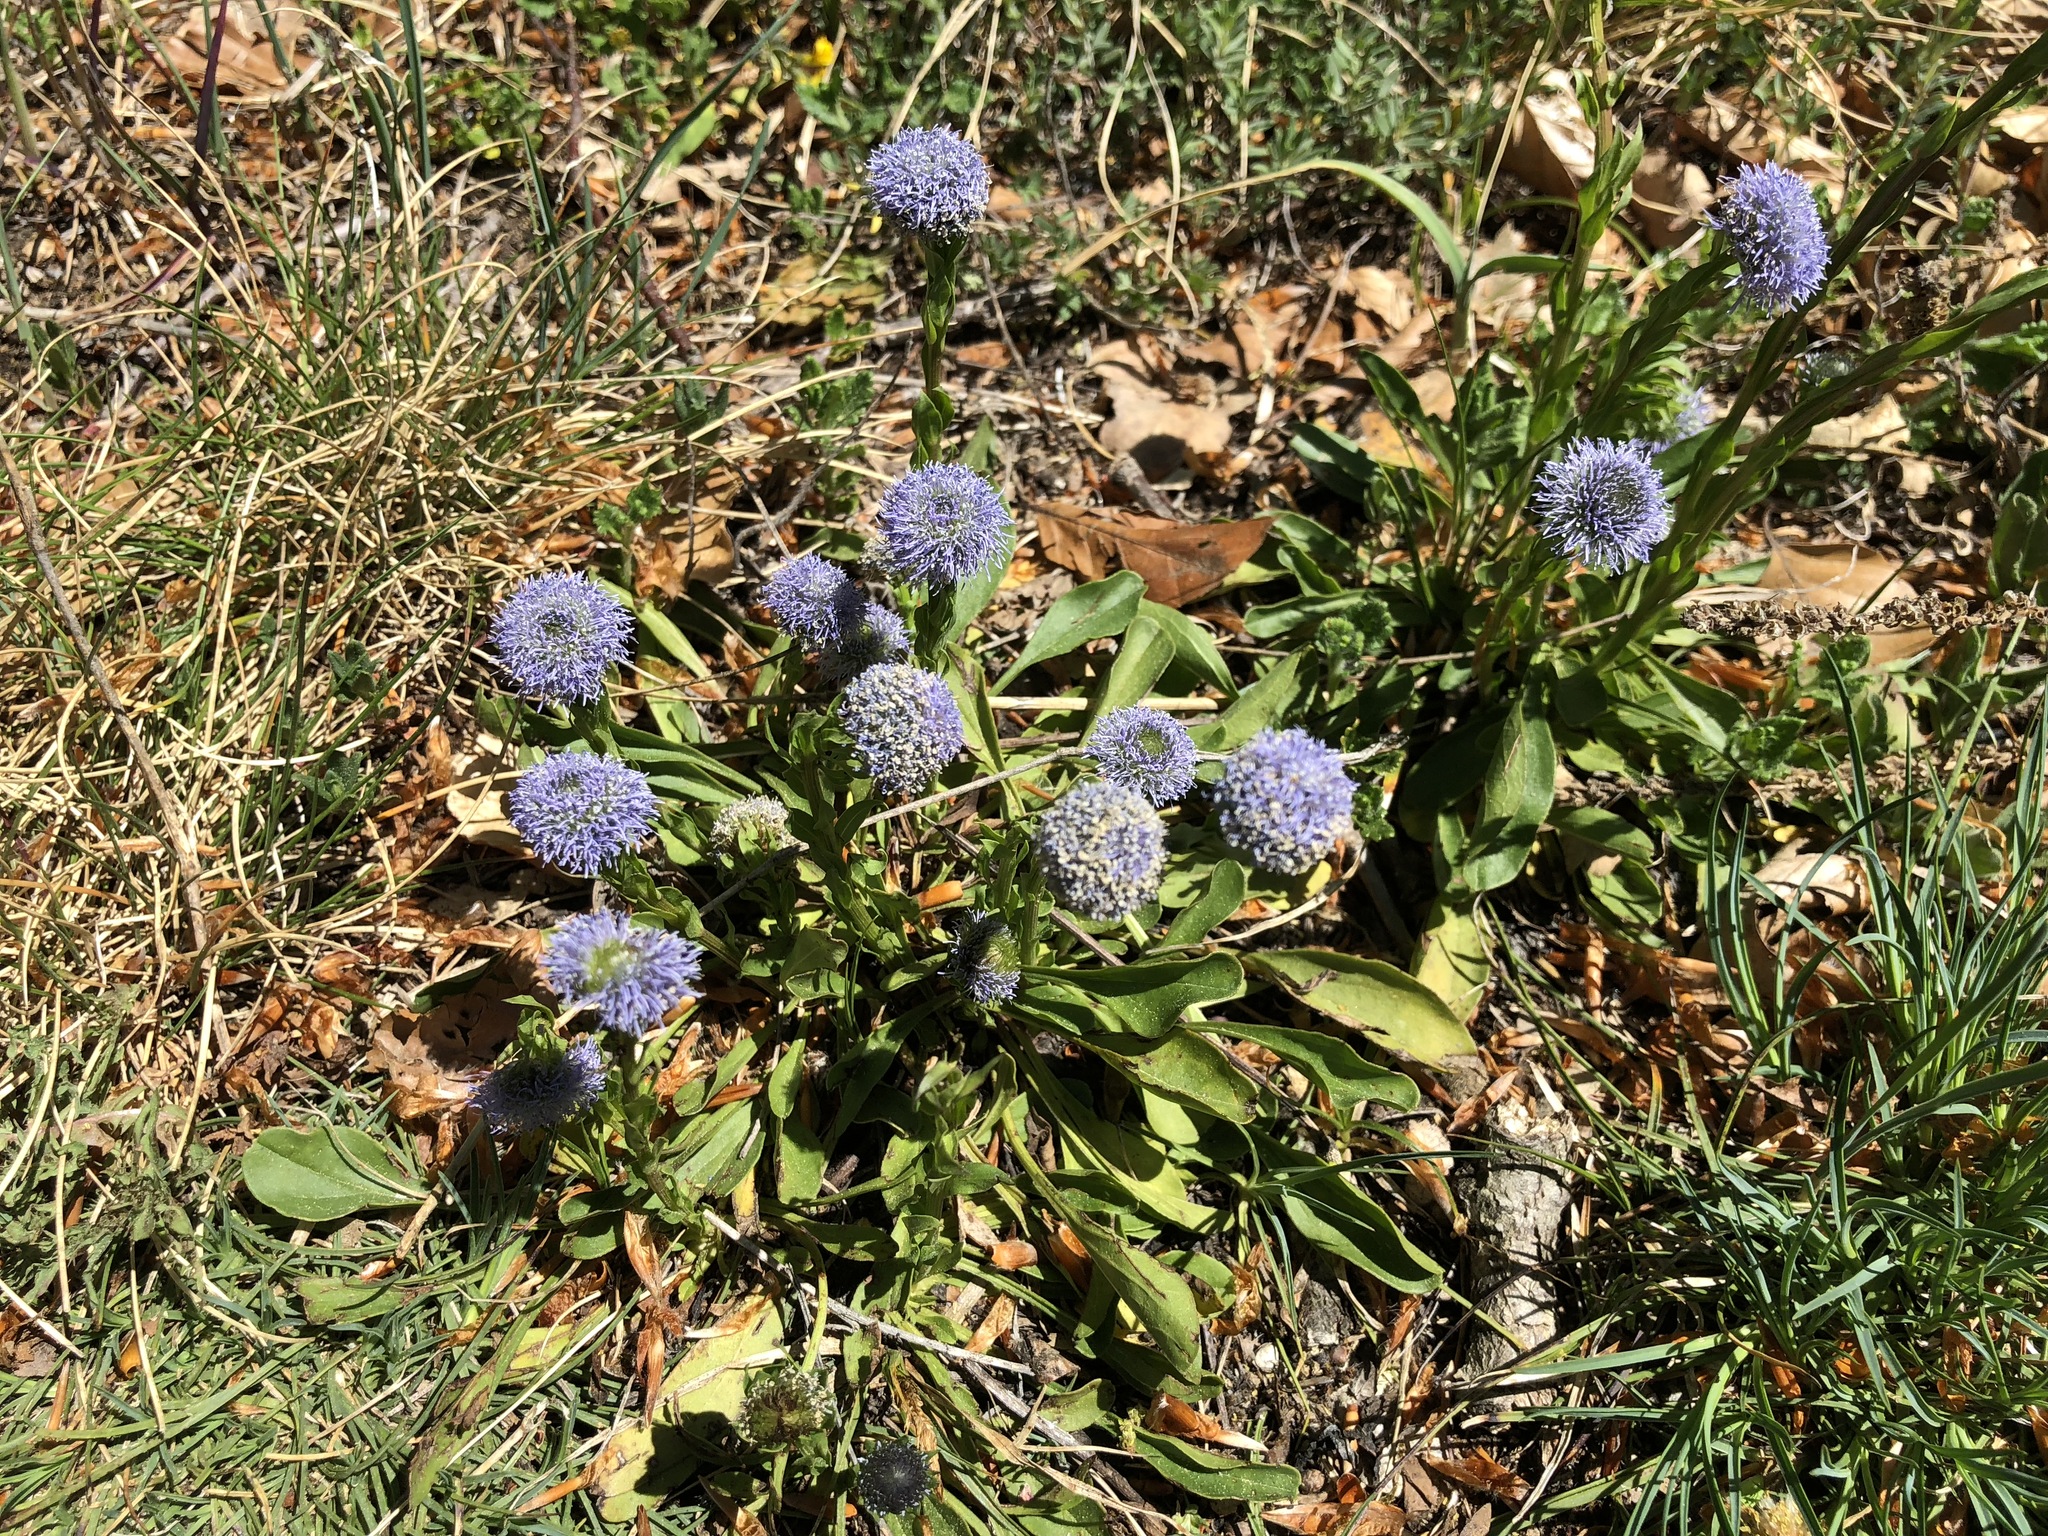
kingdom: Plantae
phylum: Tracheophyta
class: Magnoliopsida
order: Lamiales
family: Plantaginaceae
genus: Globularia
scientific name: Globularia bisnagarica
